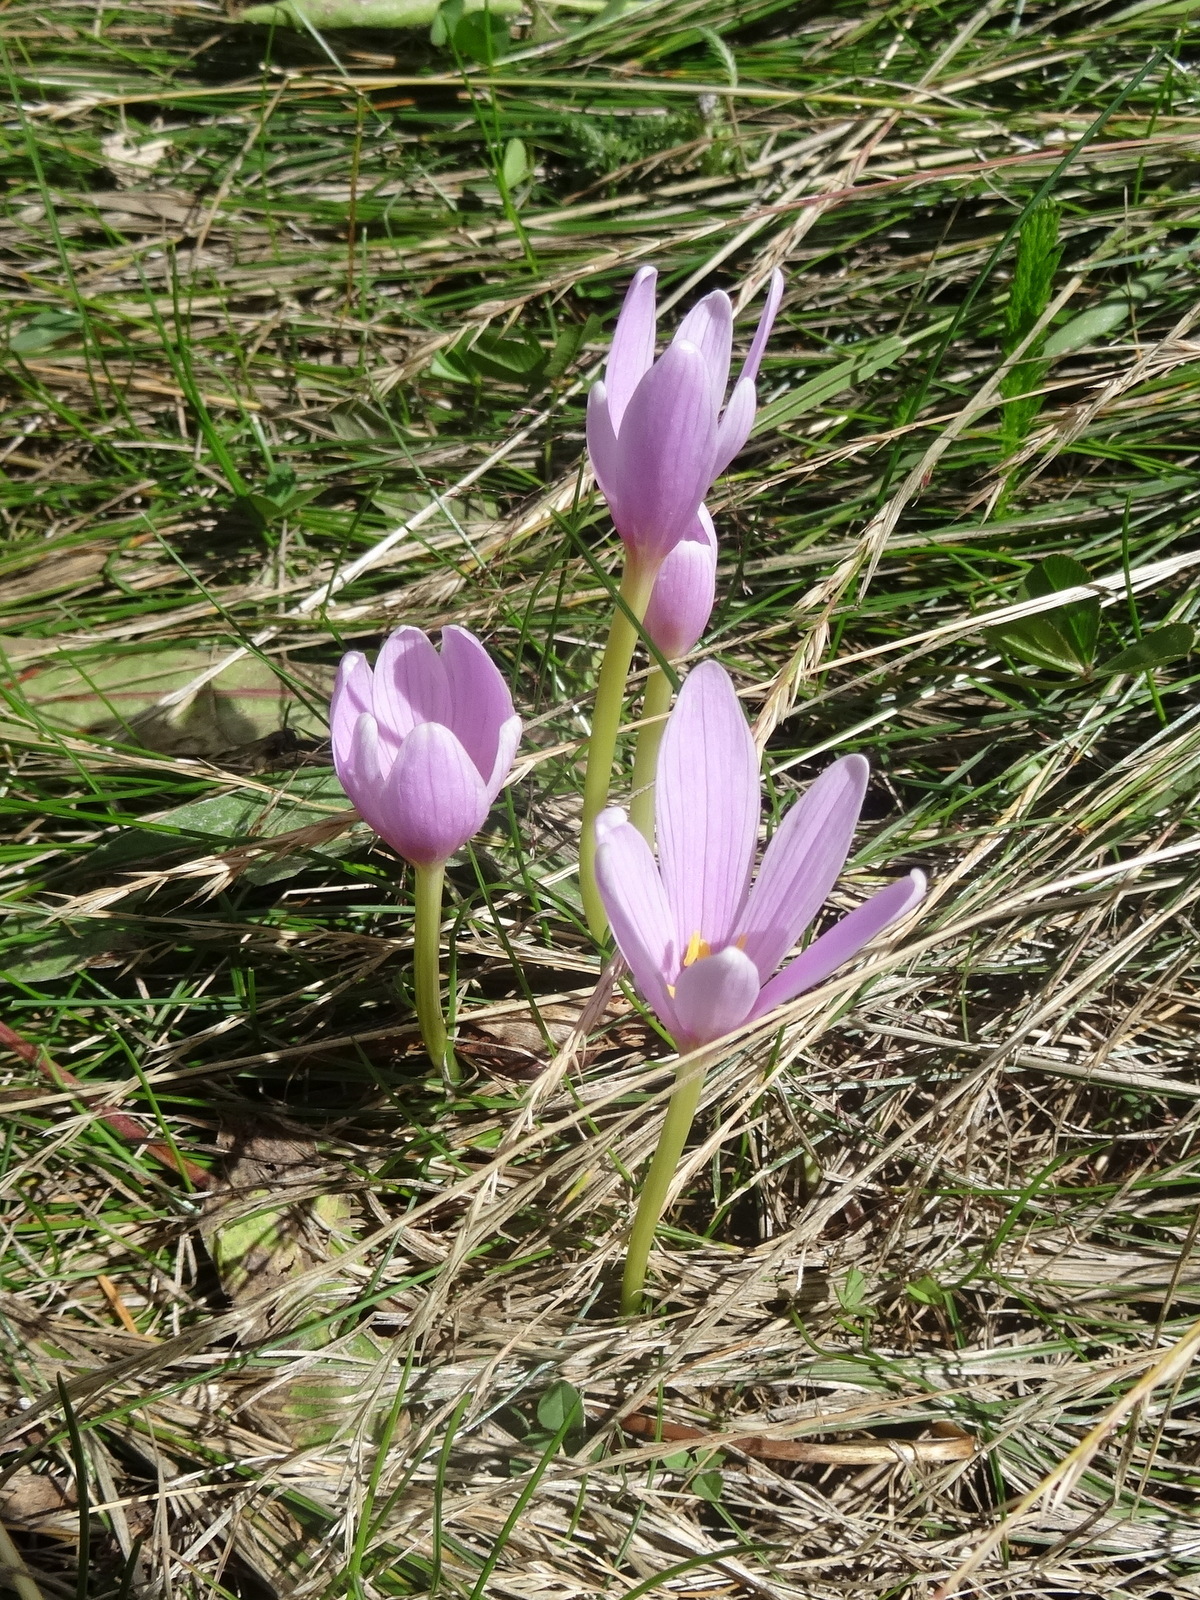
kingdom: Plantae
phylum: Tracheophyta
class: Liliopsida
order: Liliales
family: Colchicaceae
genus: Colchicum
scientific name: Colchicum autumnale
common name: Autumn crocus
